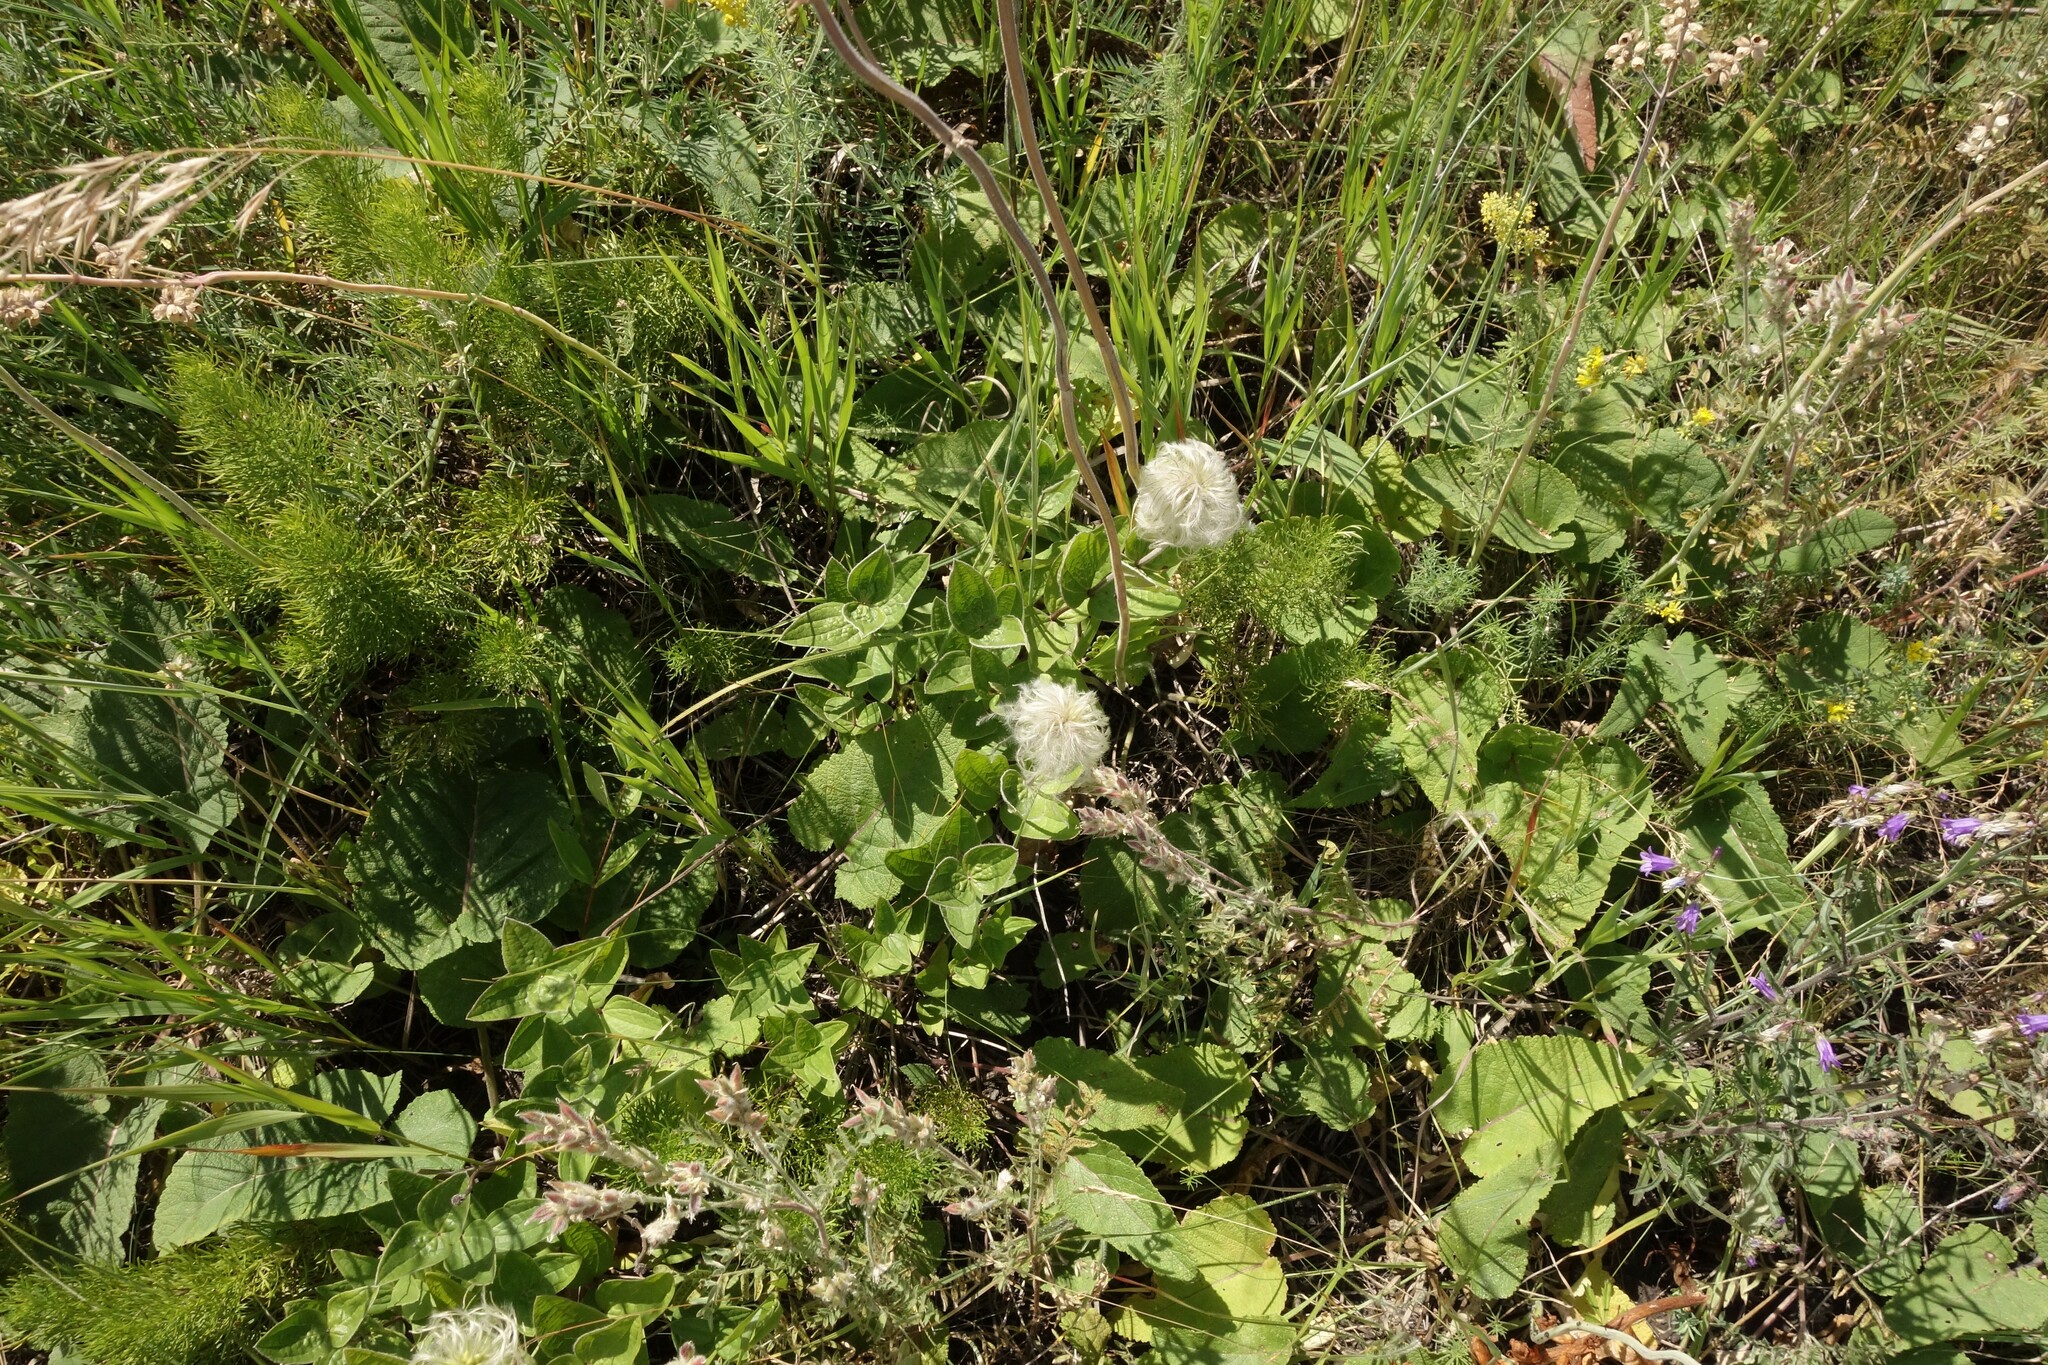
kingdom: Plantae
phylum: Tracheophyta
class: Magnoliopsida
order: Ranunculales
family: Ranunculaceae
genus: Clematis
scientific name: Clematis integrifolia
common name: Solitary clematis
